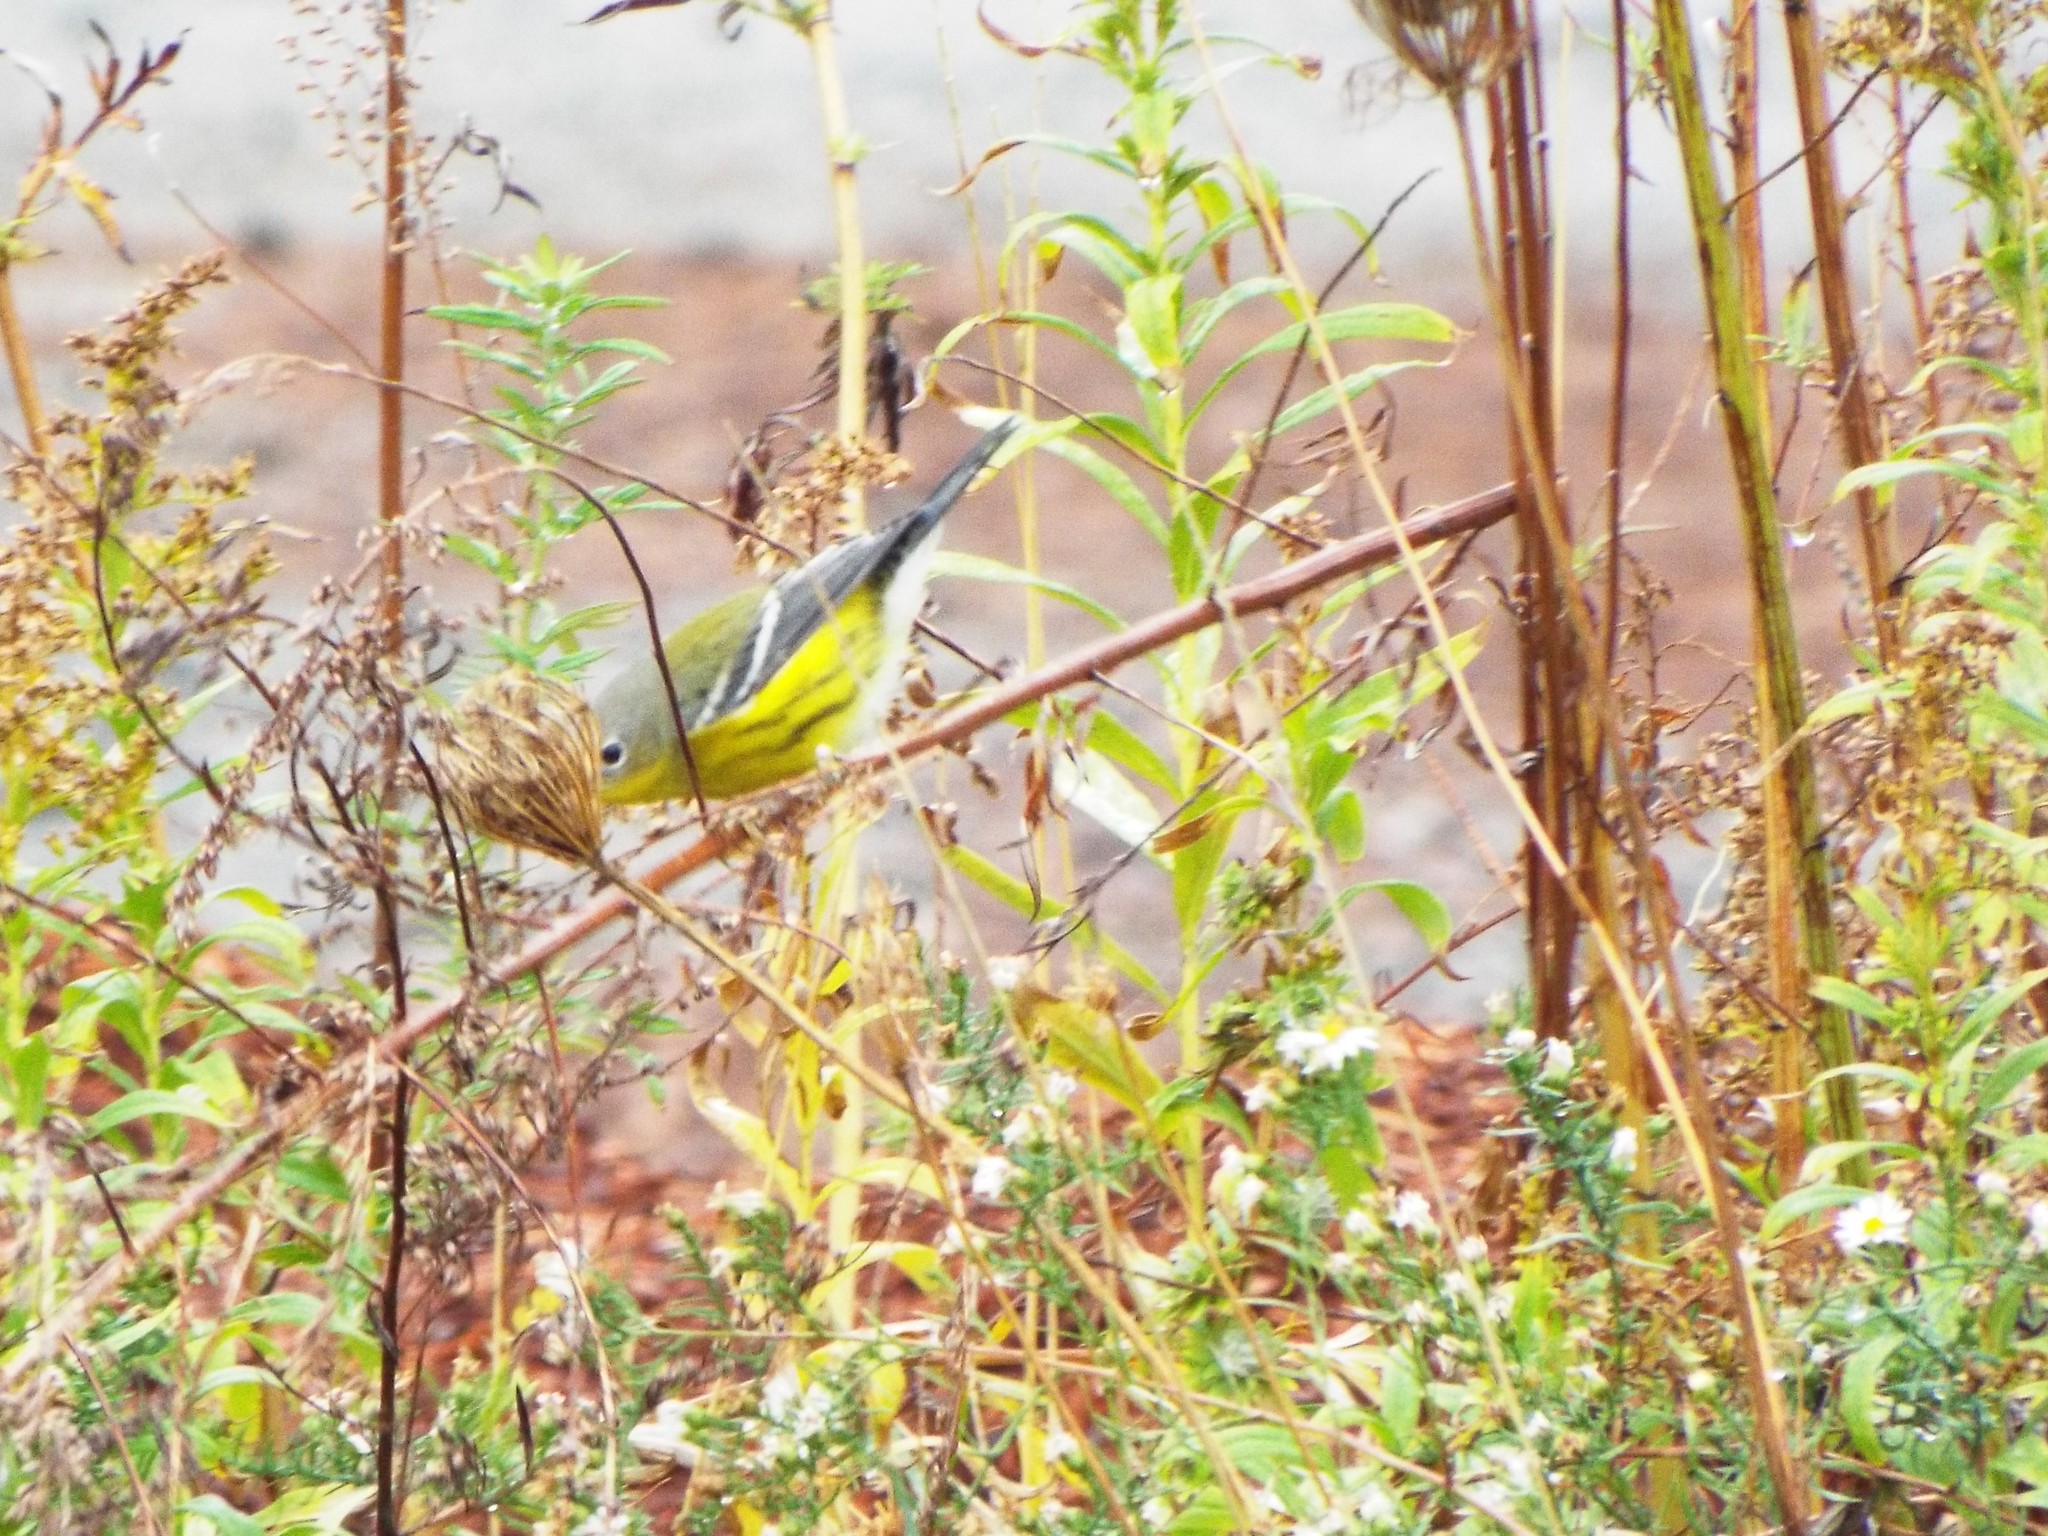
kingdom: Animalia
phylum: Chordata
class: Aves
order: Passeriformes
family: Parulidae
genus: Setophaga
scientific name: Setophaga magnolia
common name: Magnolia warbler
